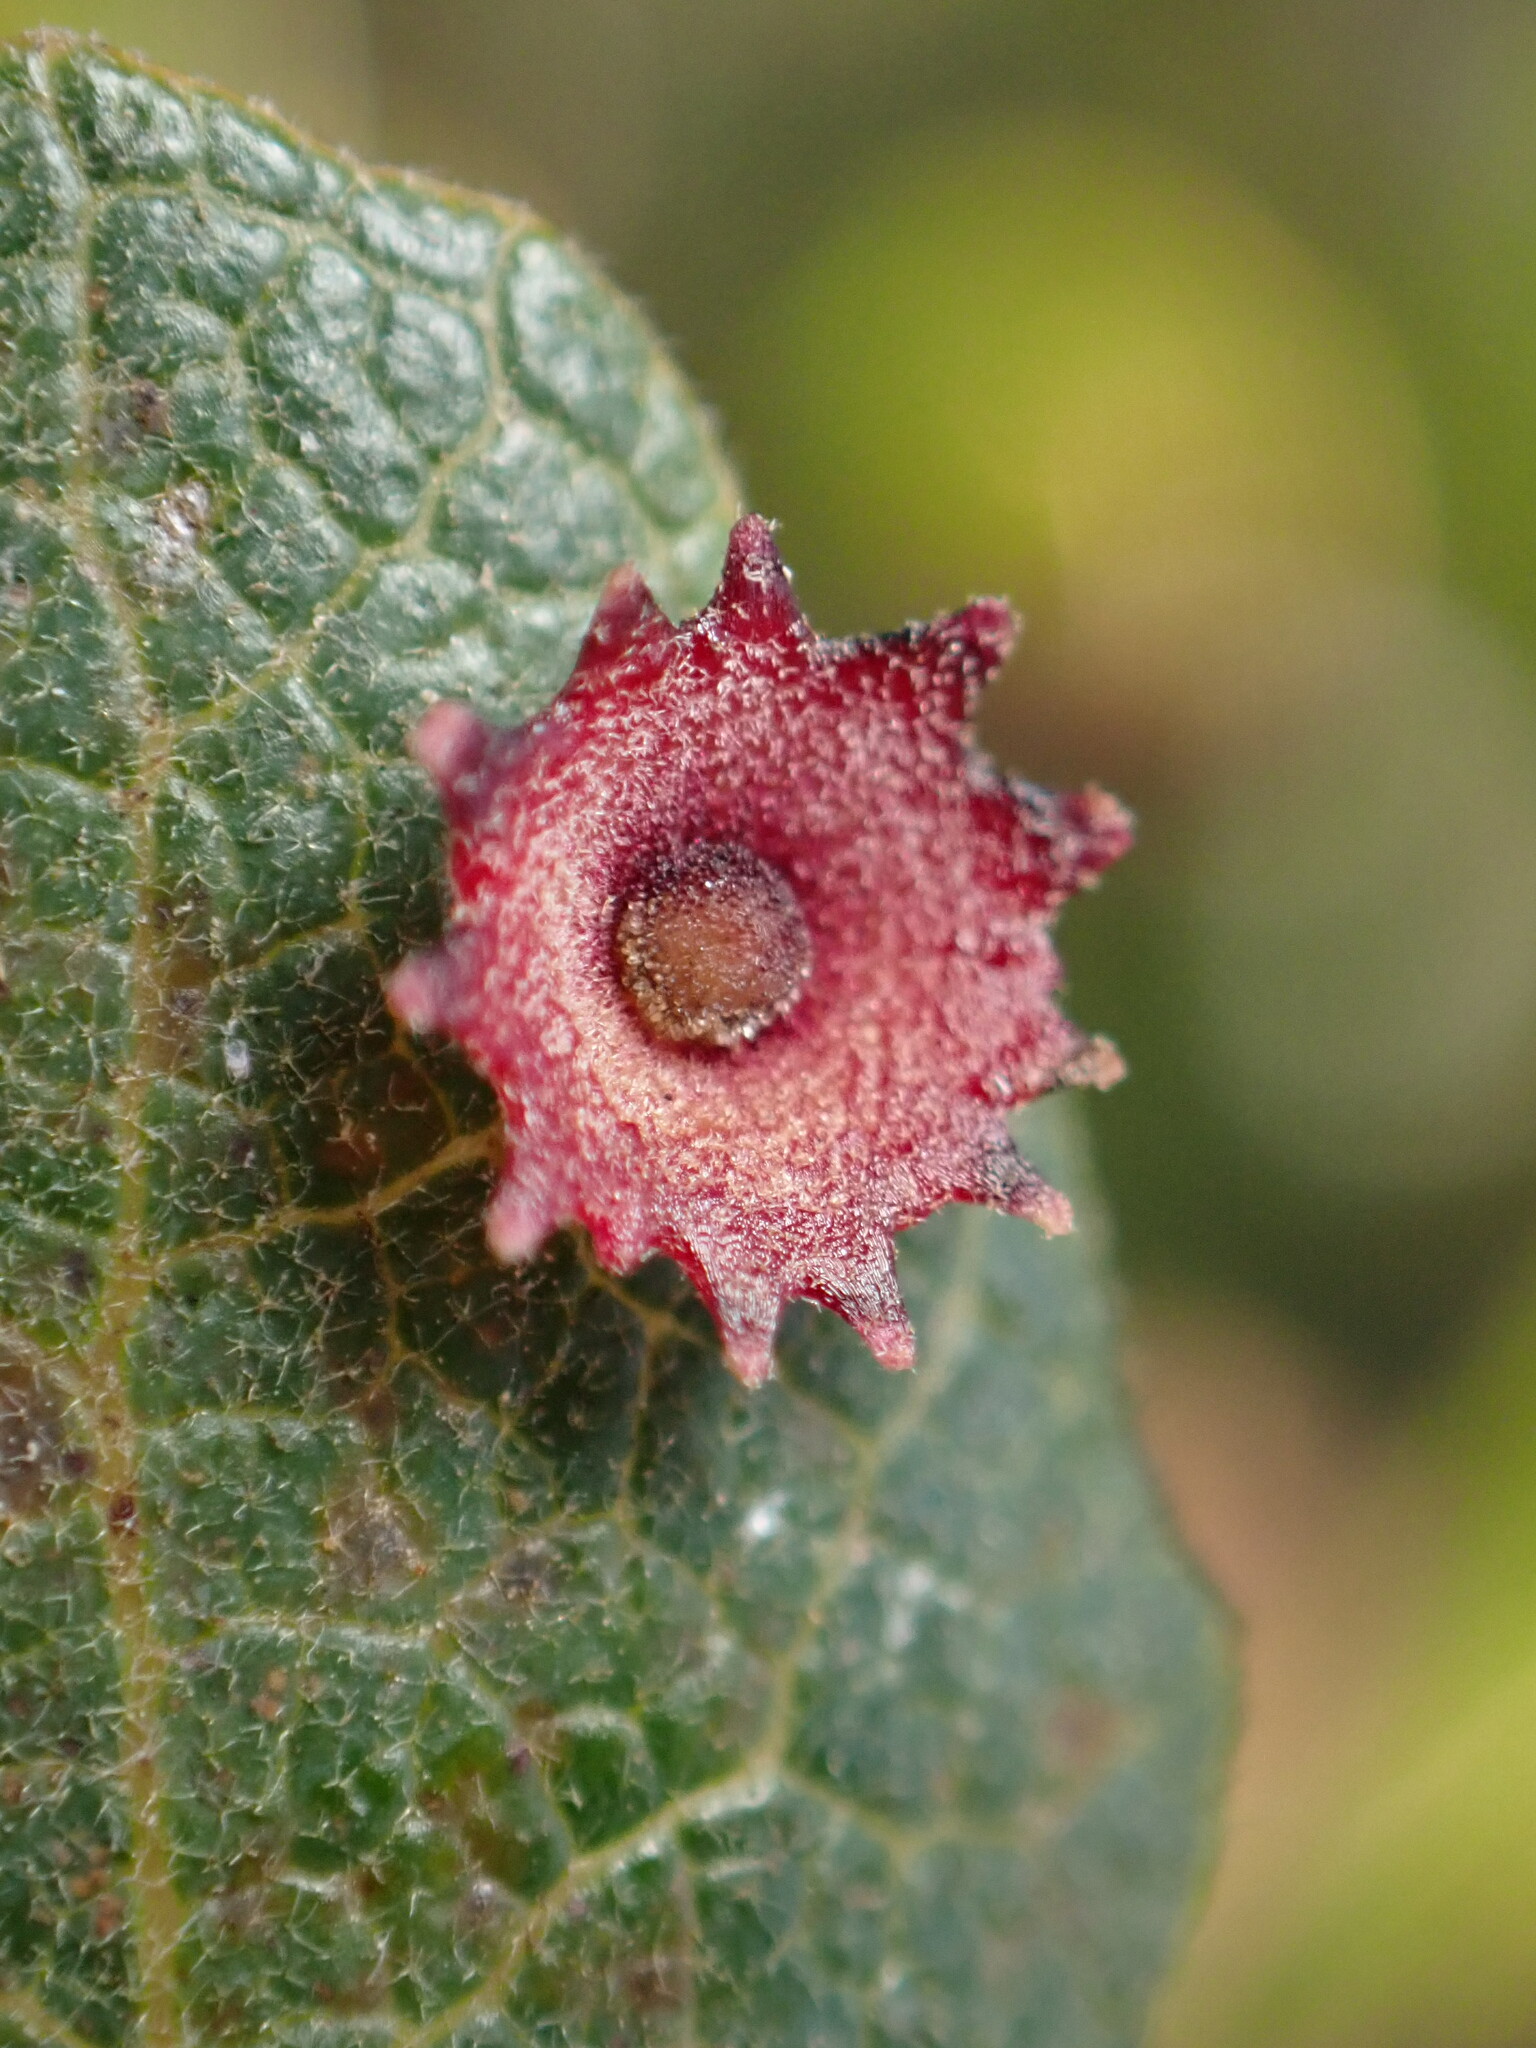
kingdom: Animalia
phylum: Arthropoda
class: Insecta
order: Hymenoptera
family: Cynipidae
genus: Andricus
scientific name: Andricus
